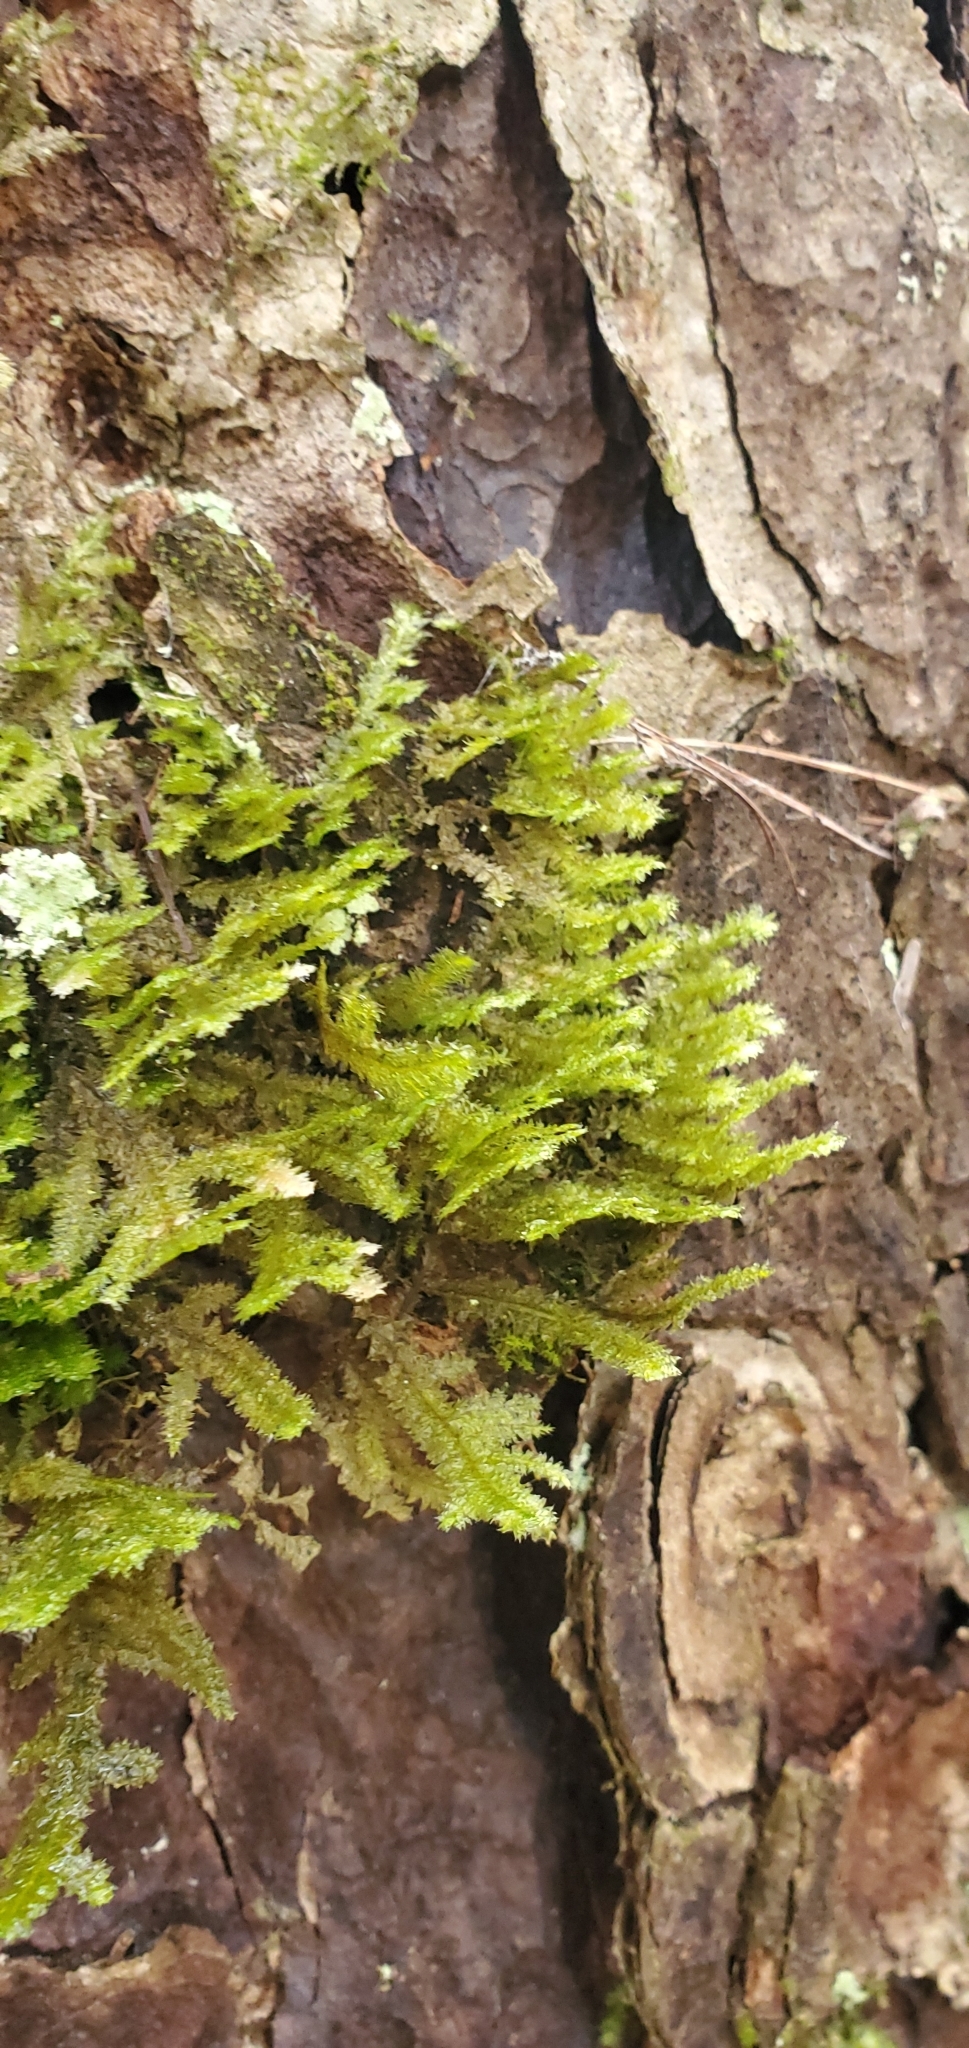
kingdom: Plantae
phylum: Bryophyta
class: Bryopsida
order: Hypnales
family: Neckeraceae
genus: Neckera
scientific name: Neckera pennata
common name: Feathery neckera
